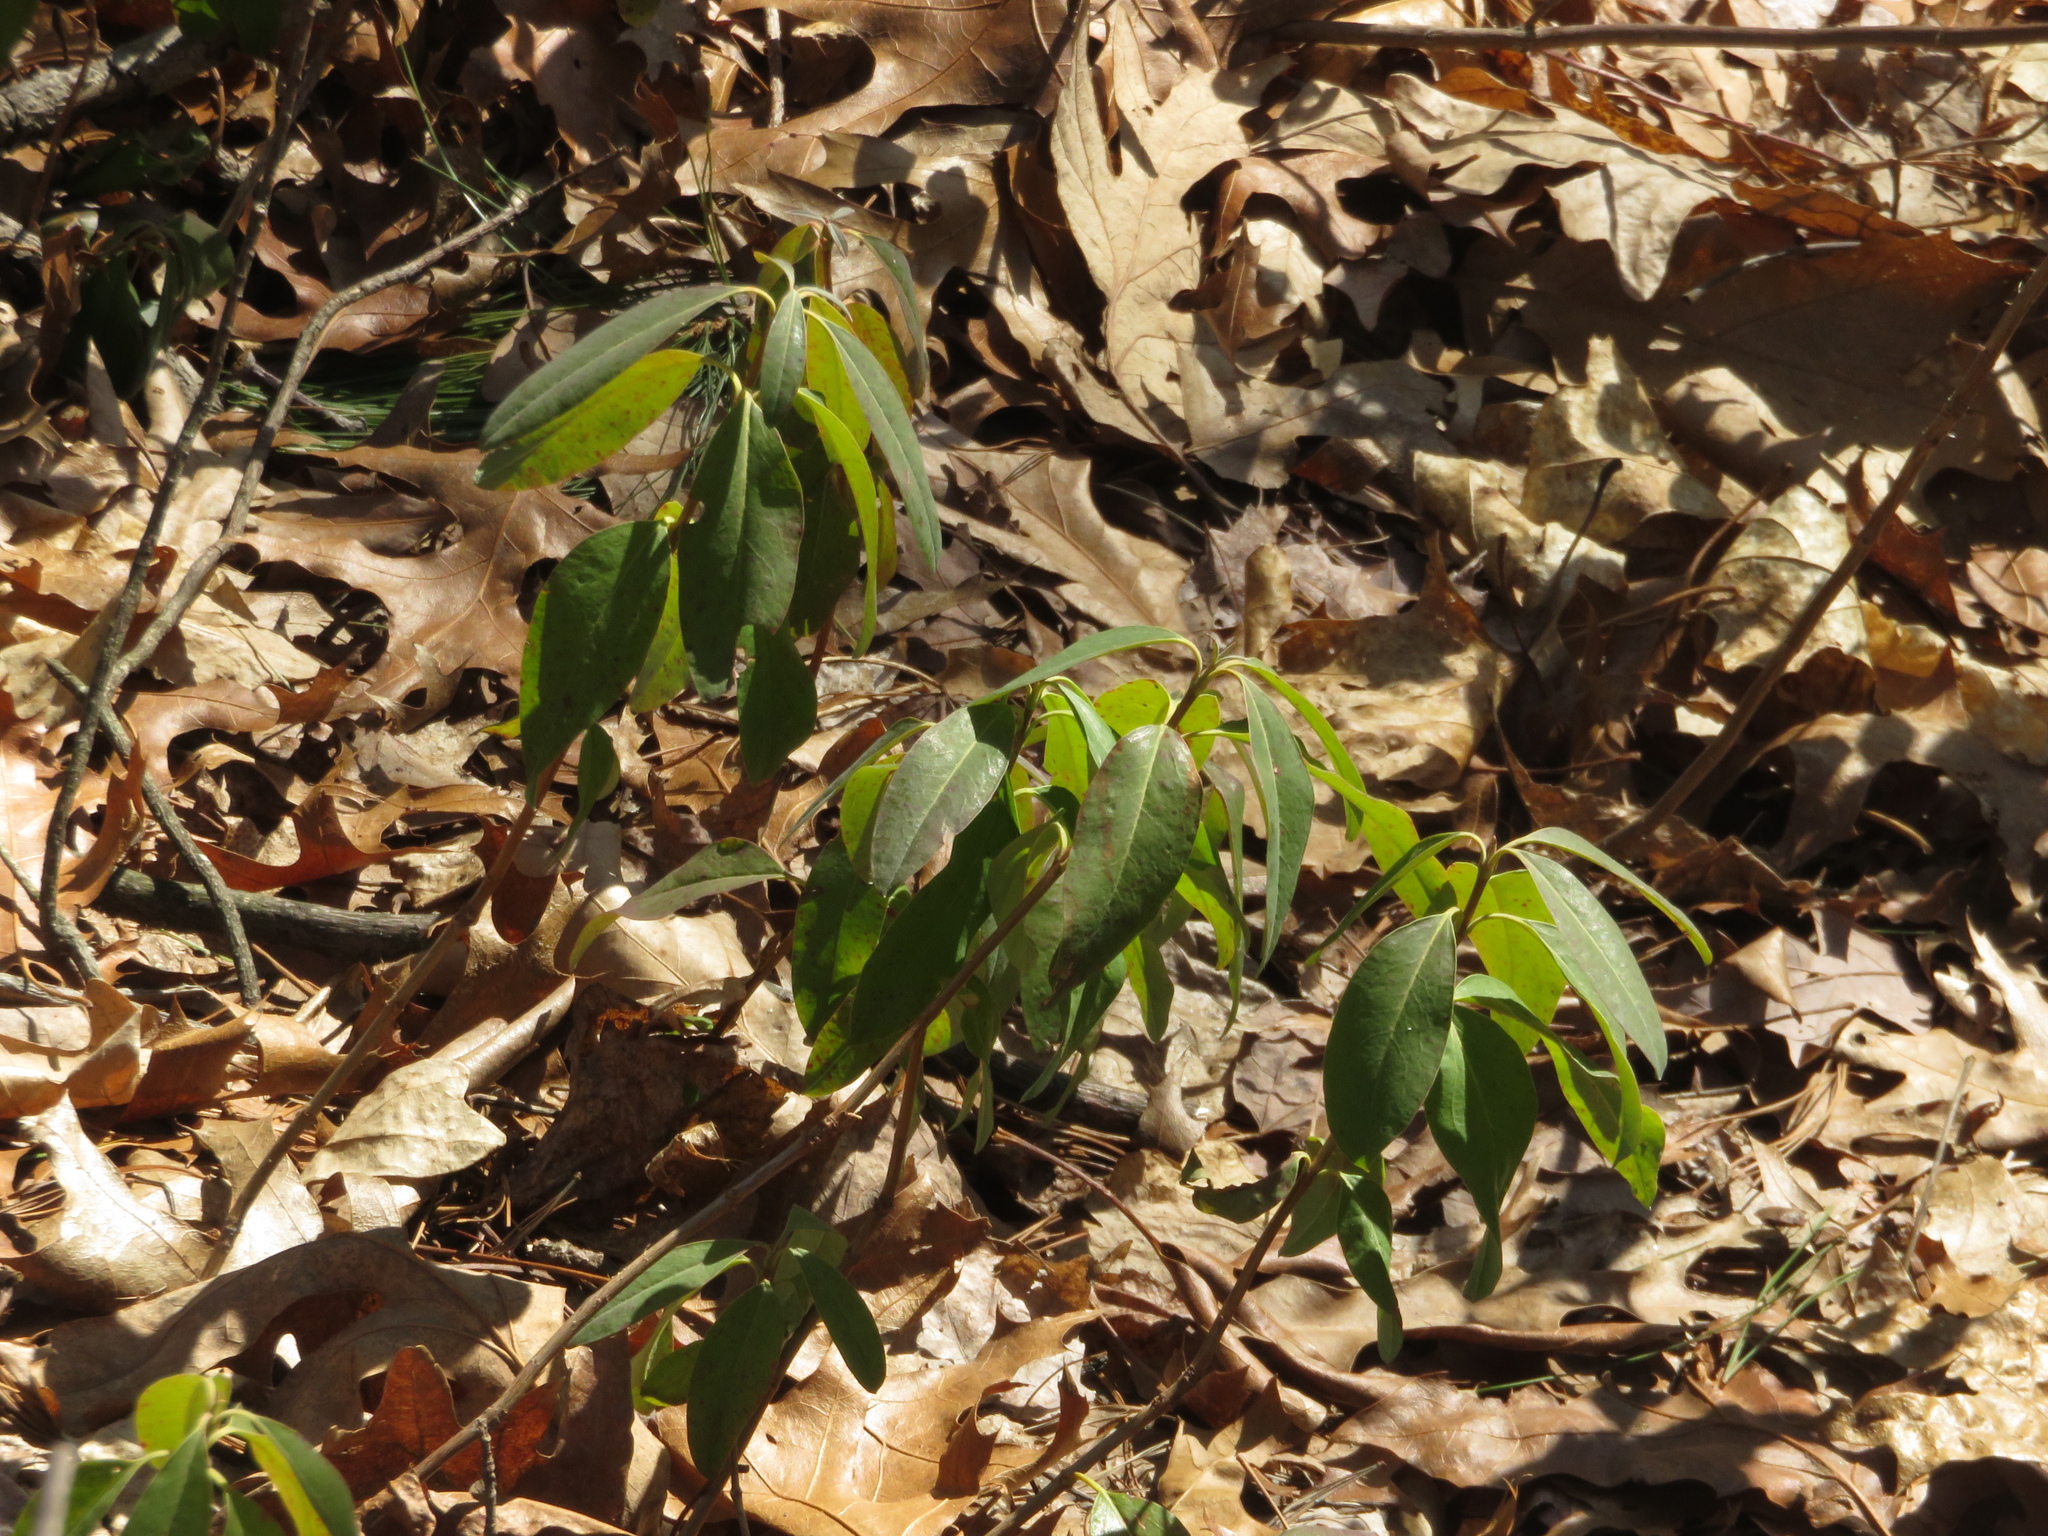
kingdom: Plantae
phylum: Tracheophyta
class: Magnoliopsida
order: Ericales
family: Ericaceae
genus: Kalmia
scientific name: Kalmia angustifolia
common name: Sheep-laurel
